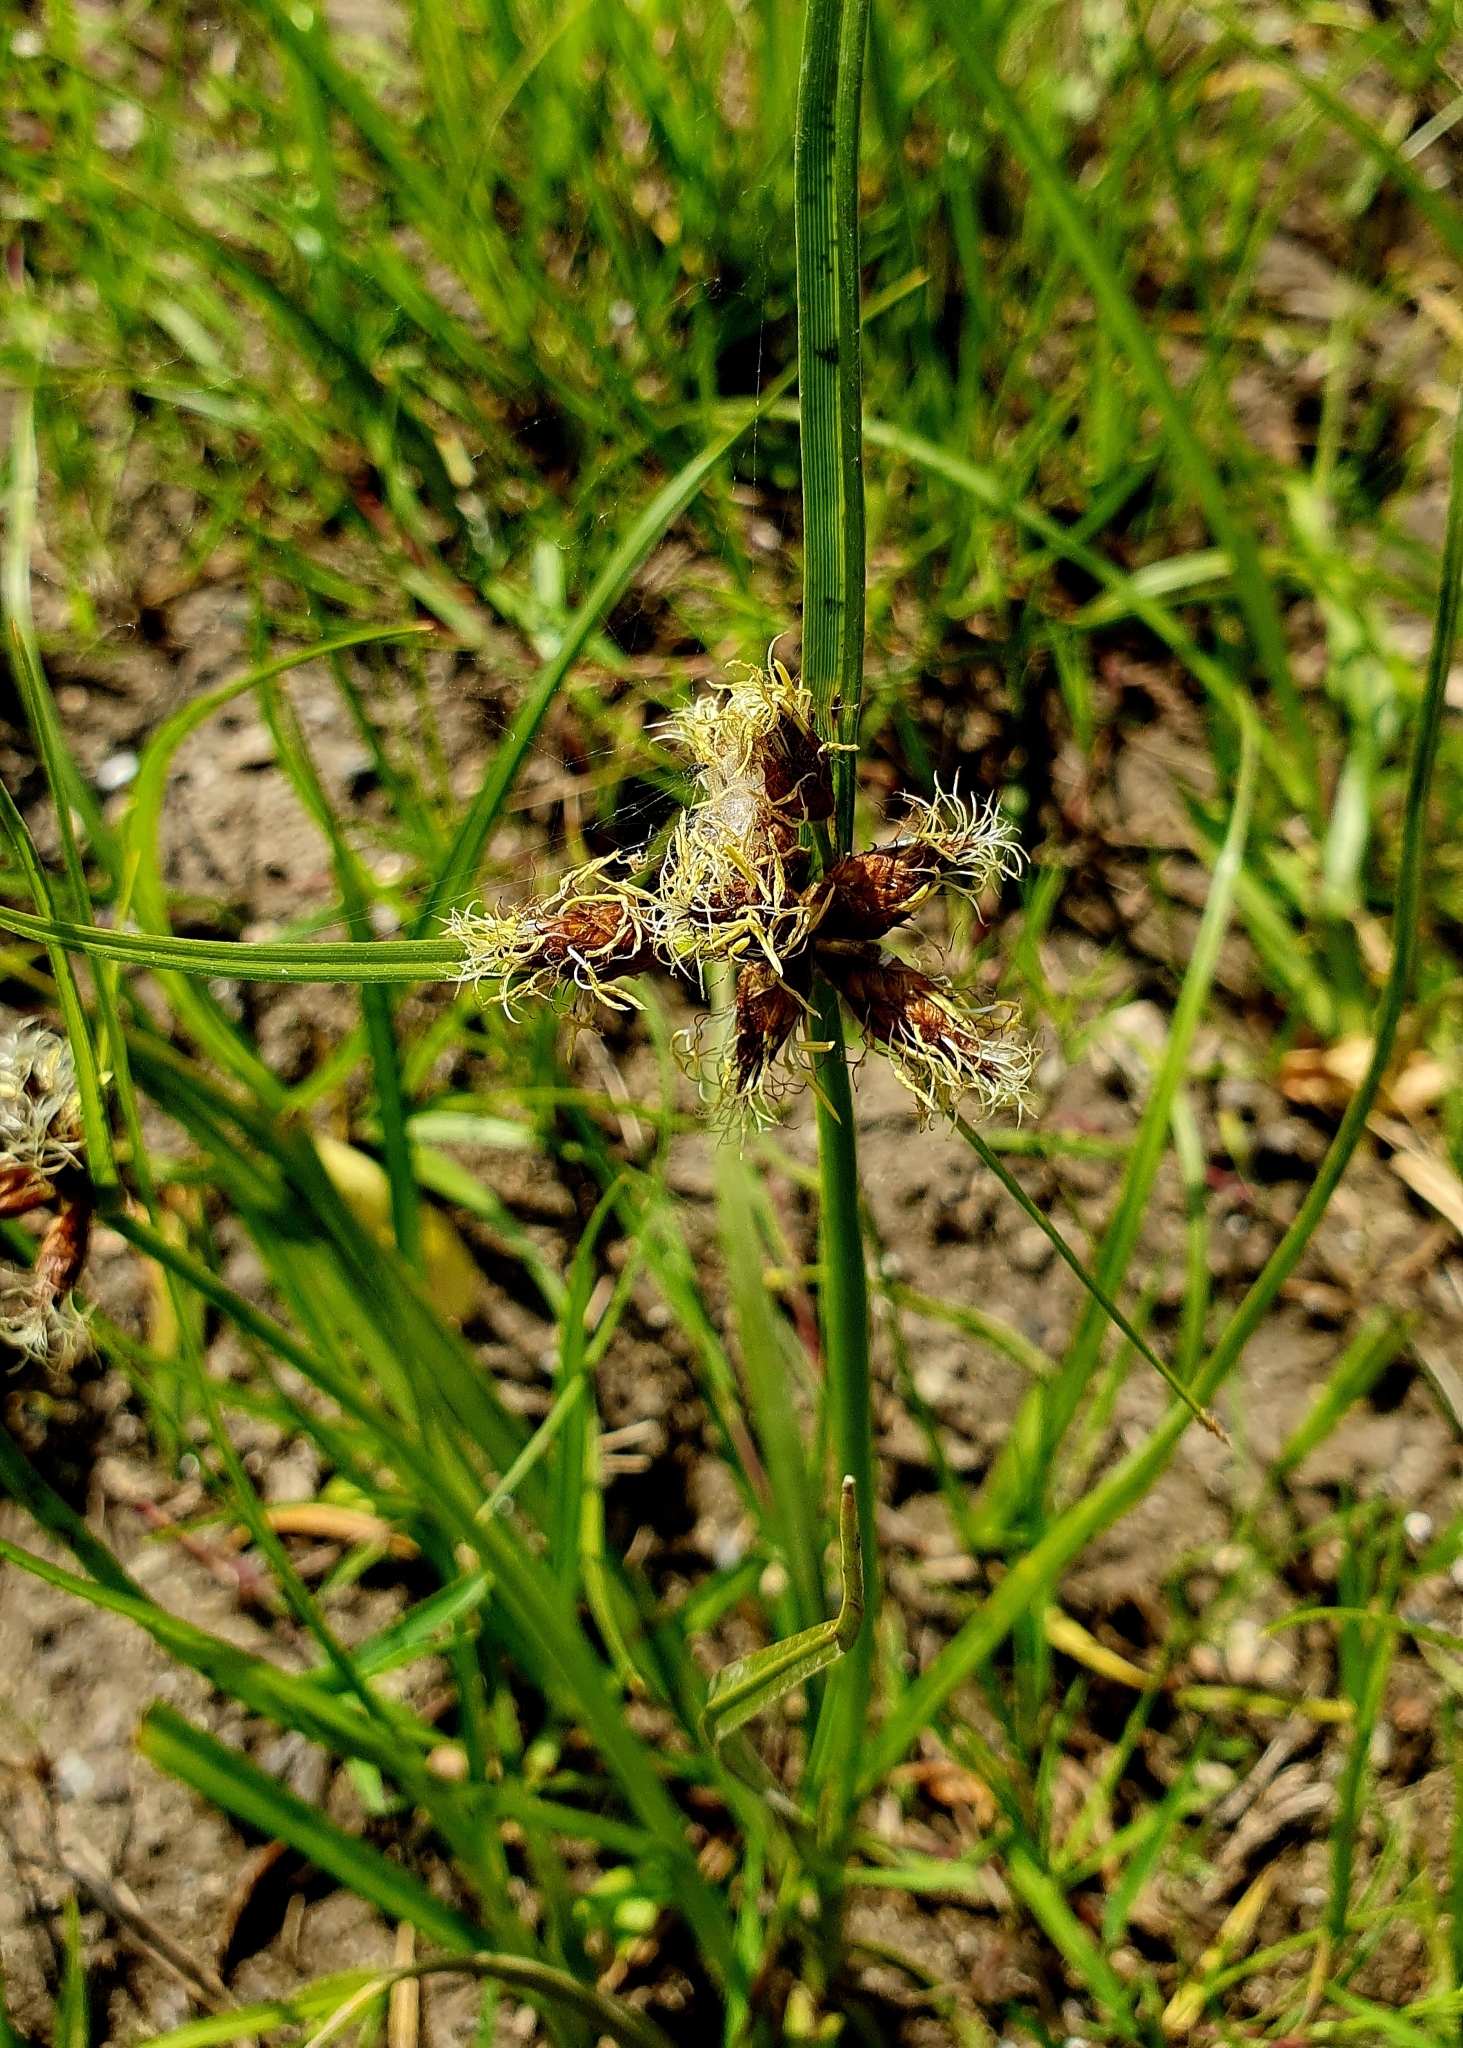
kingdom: Plantae
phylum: Tracheophyta
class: Liliopsida
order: Poales
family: Cyperaceae
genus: Bolboschoenus
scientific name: Bolboschoenus maritimus
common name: Sea club-rush
